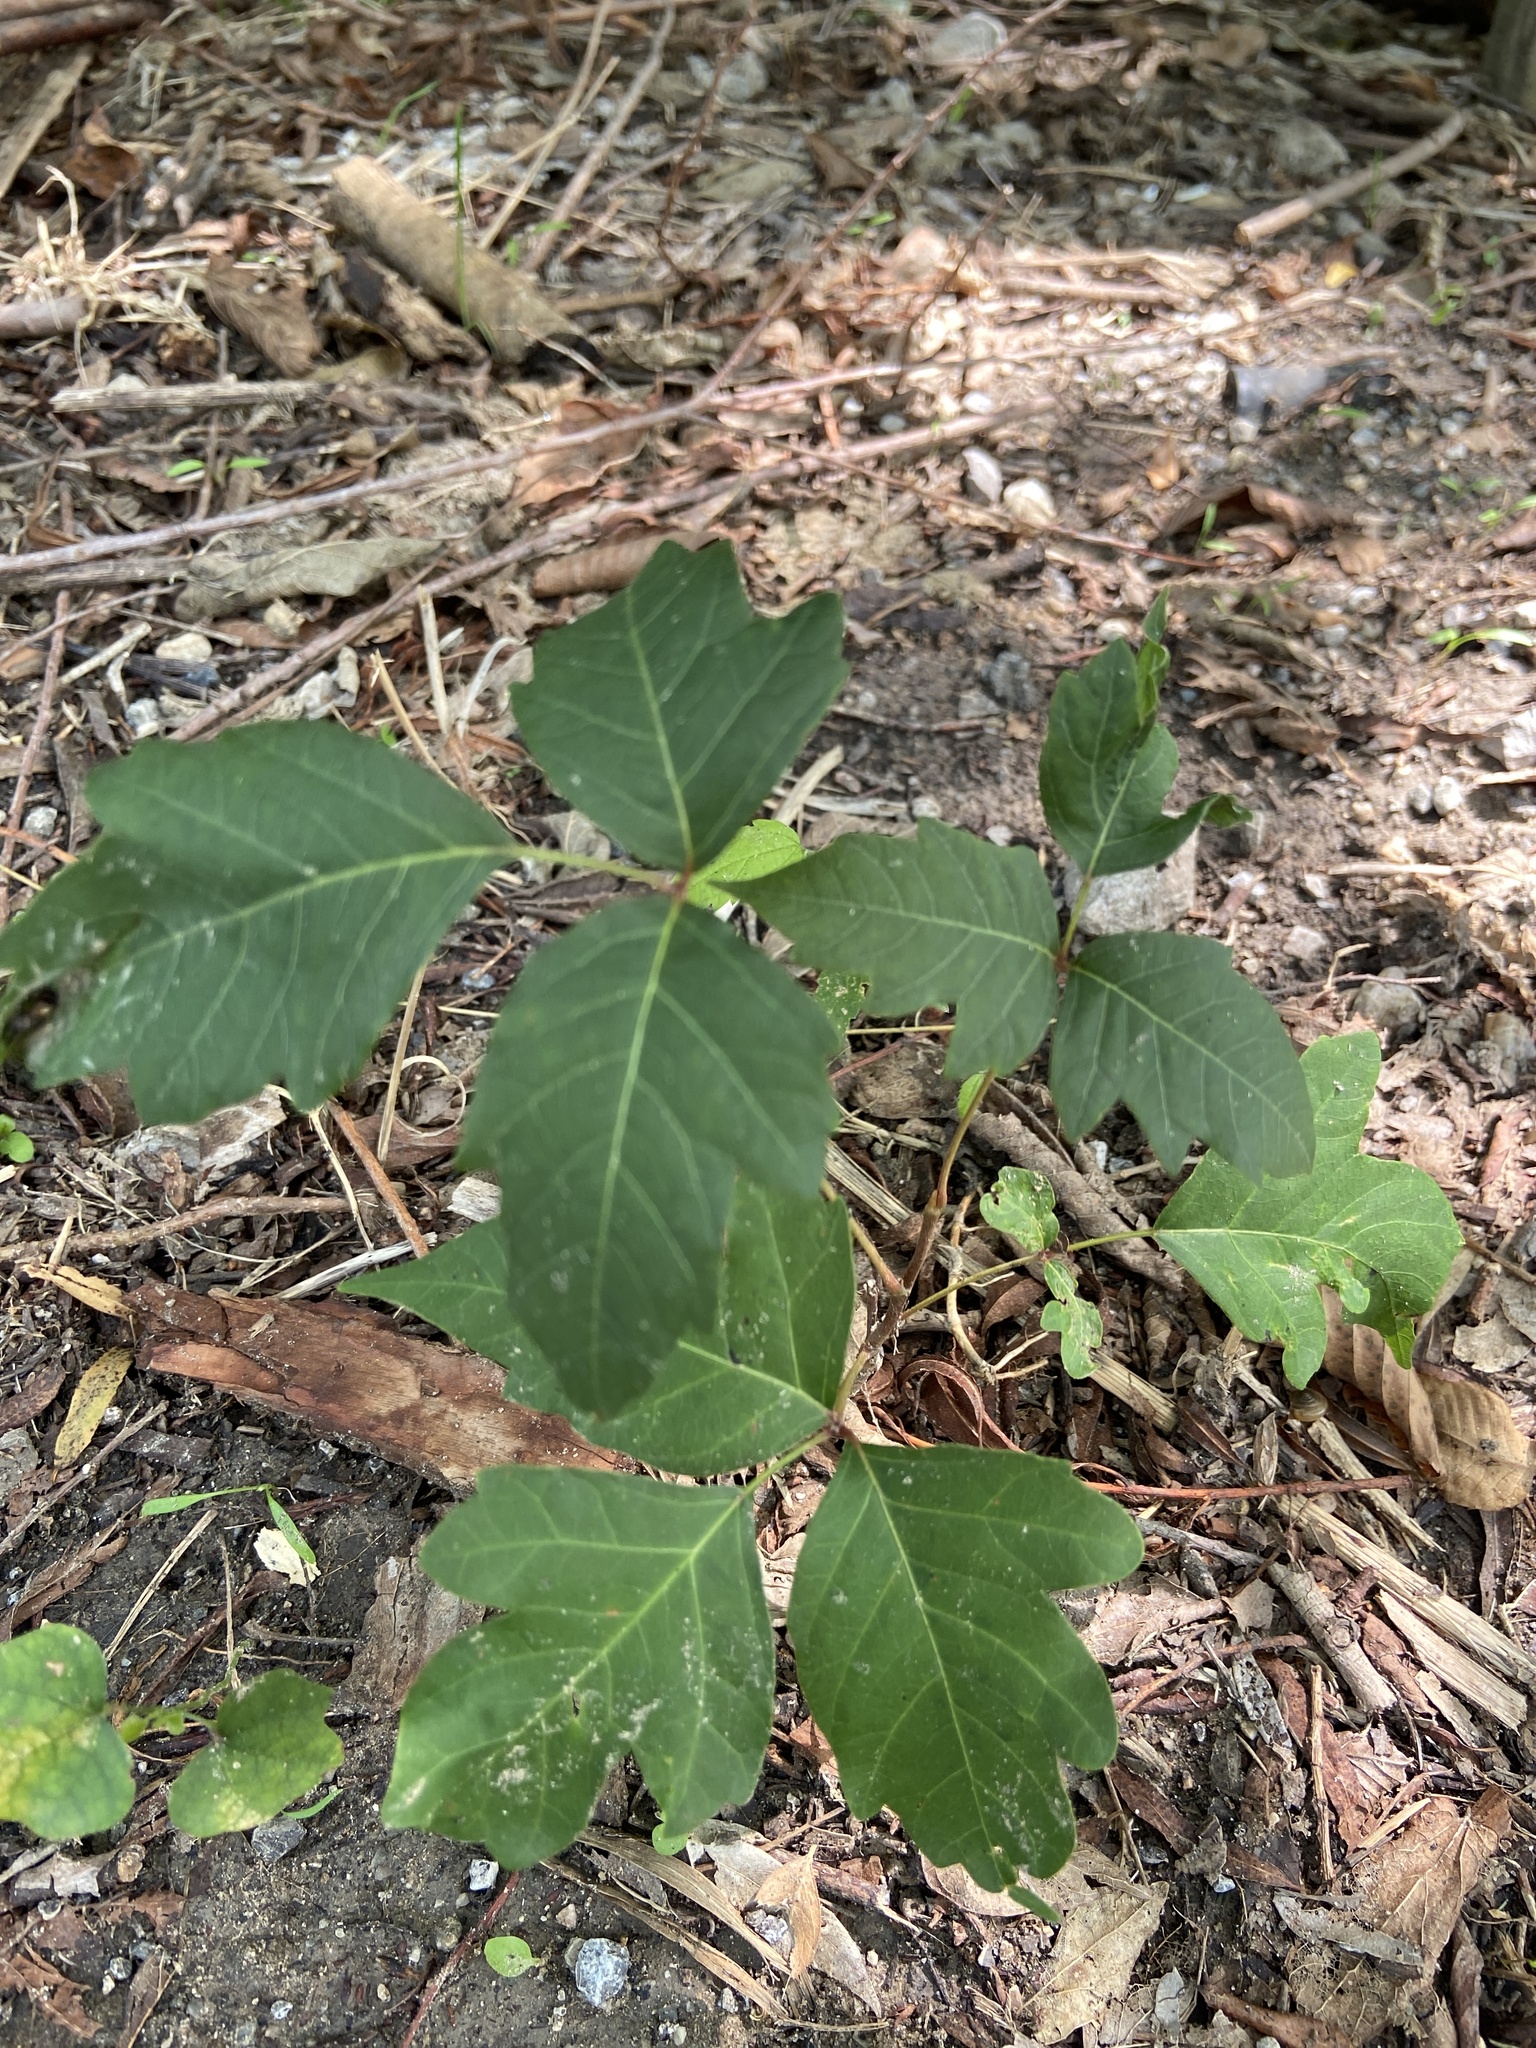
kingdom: Plantae
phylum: Tracheophyta
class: Magnoliopsida
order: Sapindales
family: Anacardiaceae
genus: Toxicodendron
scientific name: Toxicodendron radicans
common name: Poison ivy
